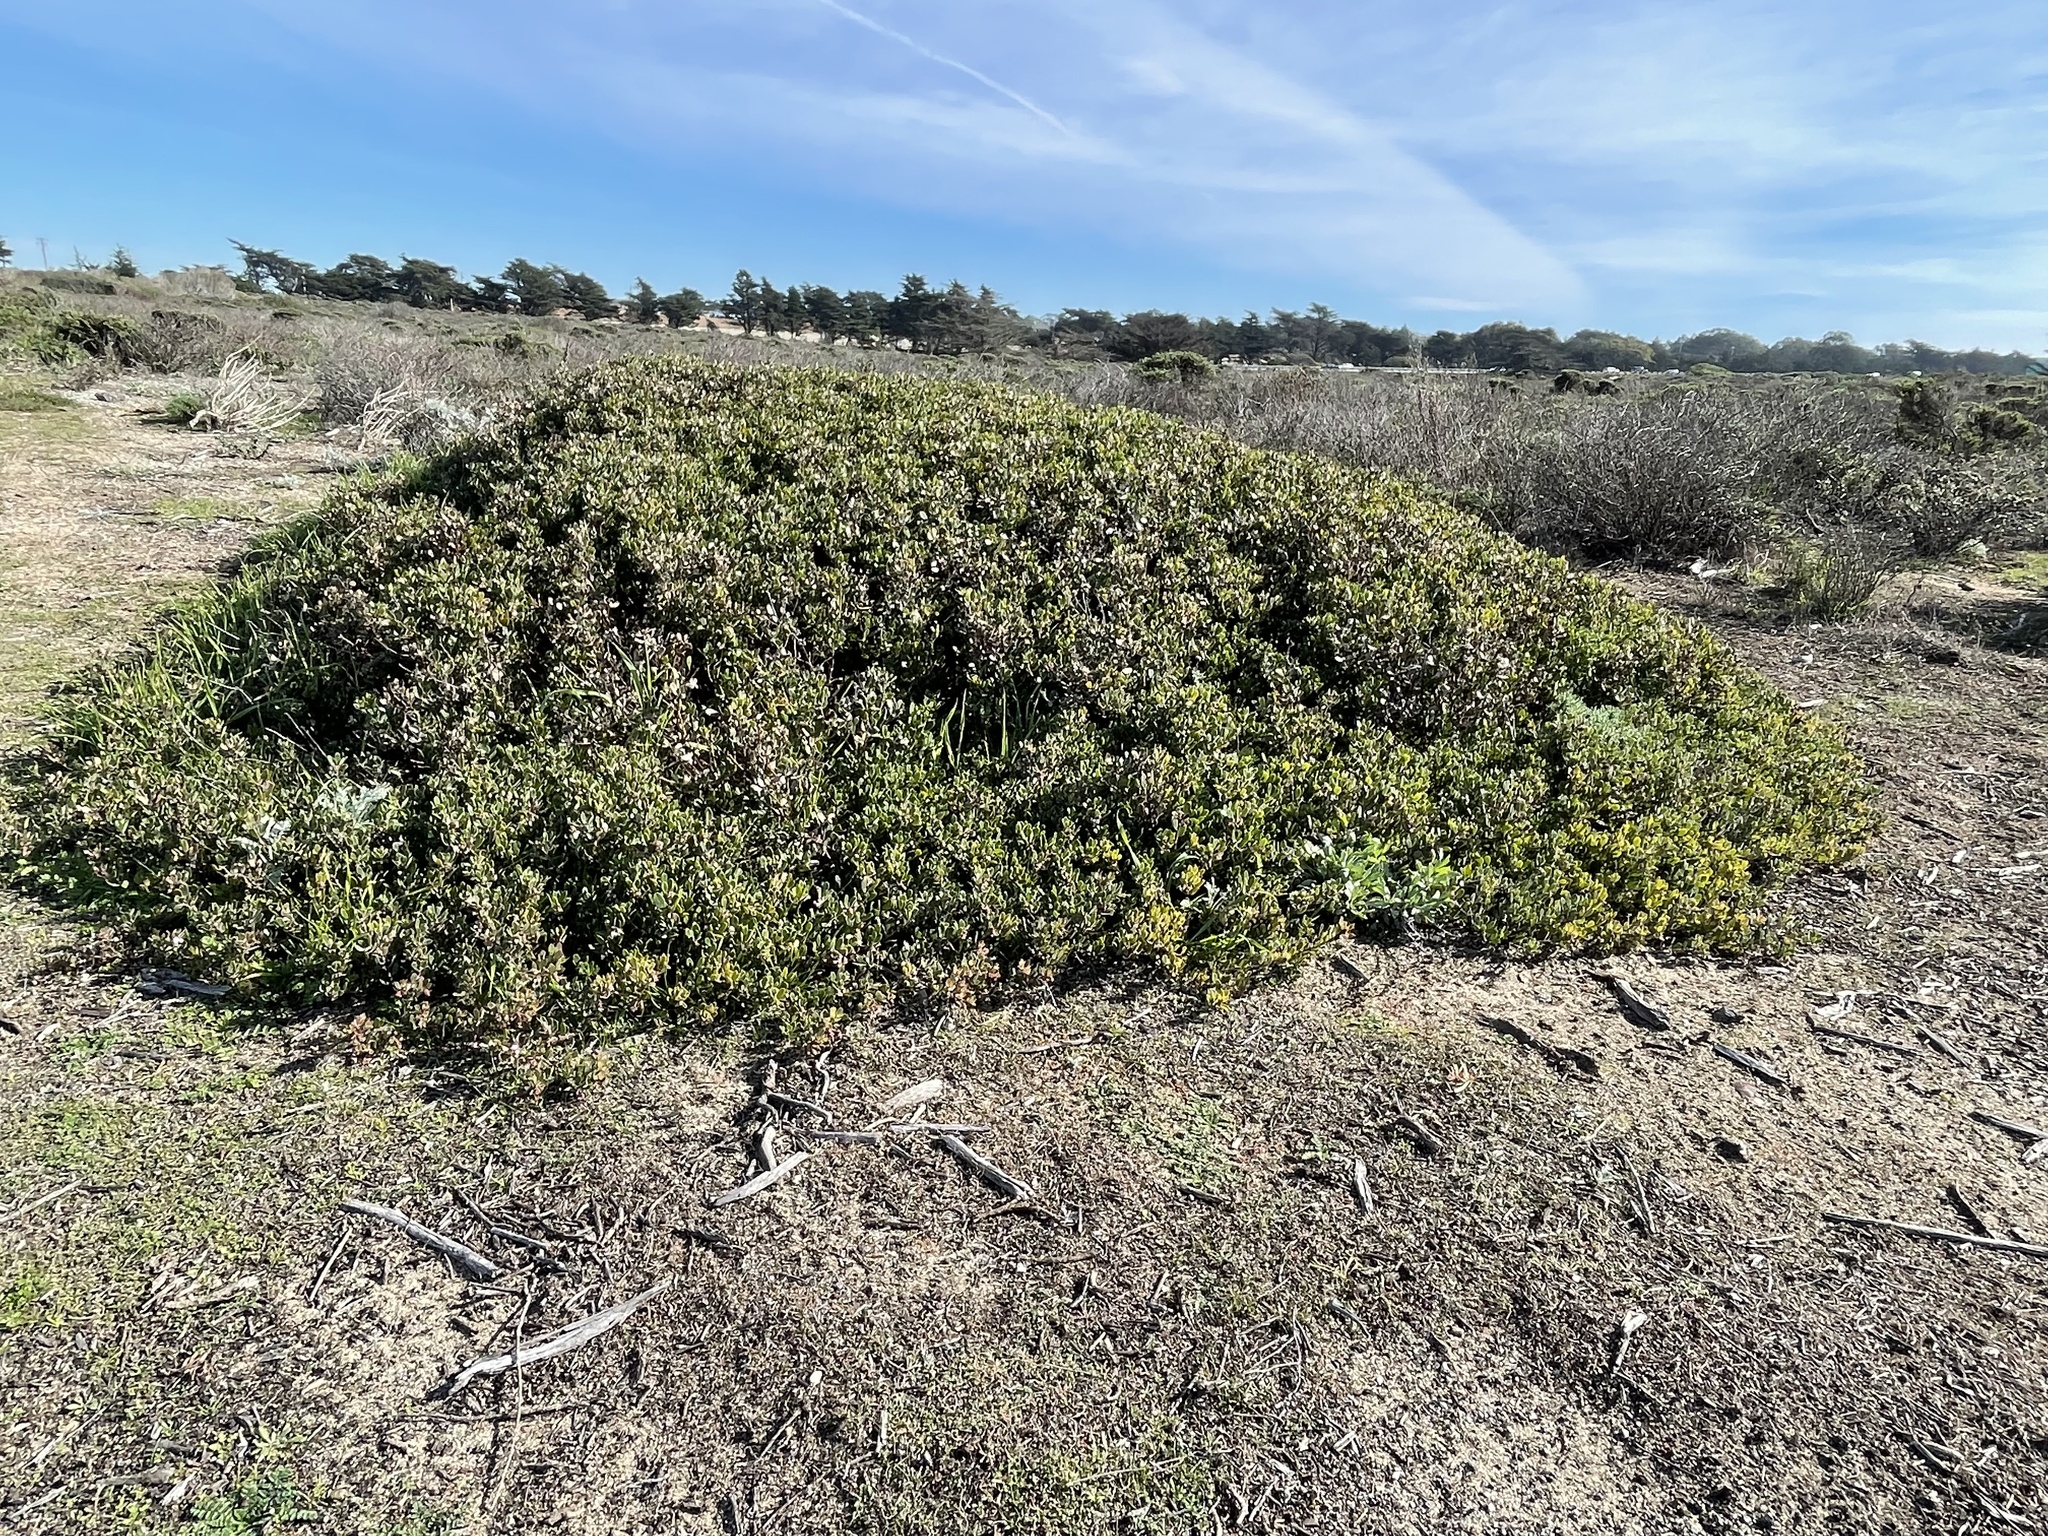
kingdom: Plantae
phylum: Tracheophyta
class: Magnoliopsida
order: Ericales
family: Ericaceae
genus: Arctostaphylos
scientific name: Arctostaphylos pumila
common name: Sandmat manzanita
